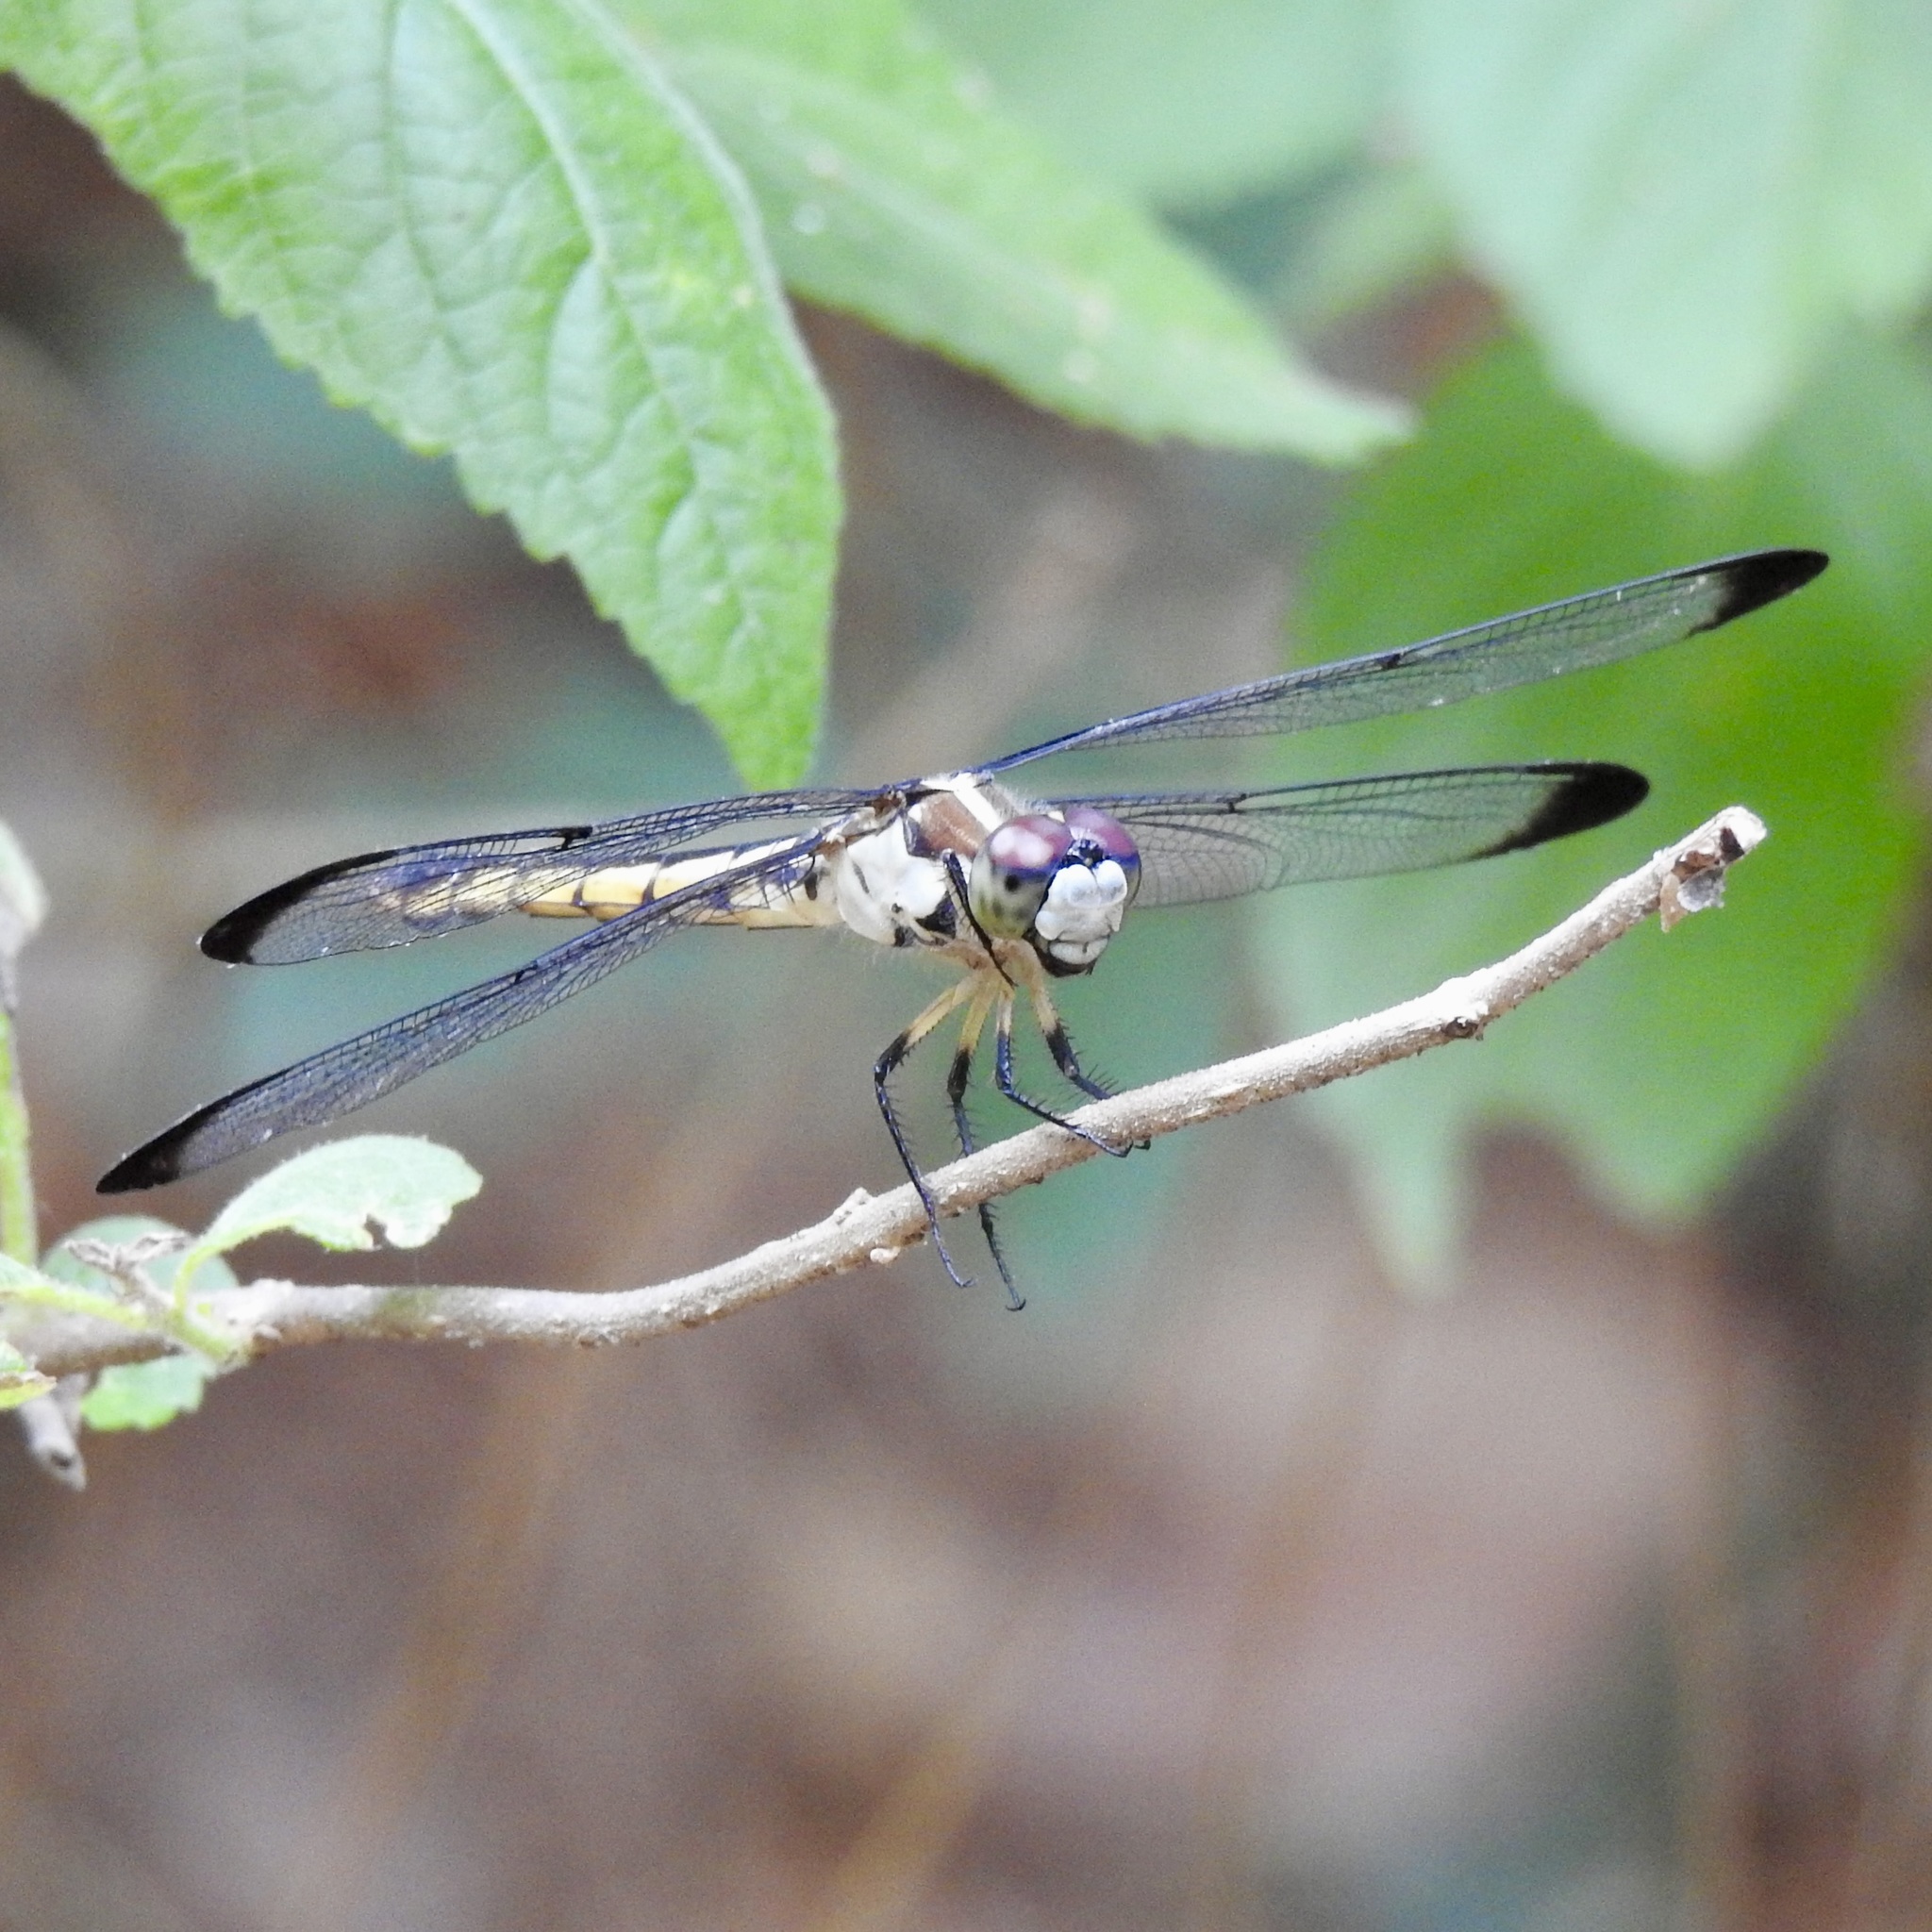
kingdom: Animalia
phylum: Arthropoda
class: Insecta
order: Odonata
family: Libellulidae
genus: Libellula
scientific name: Libellula vibrans
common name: Great blue skimmer
